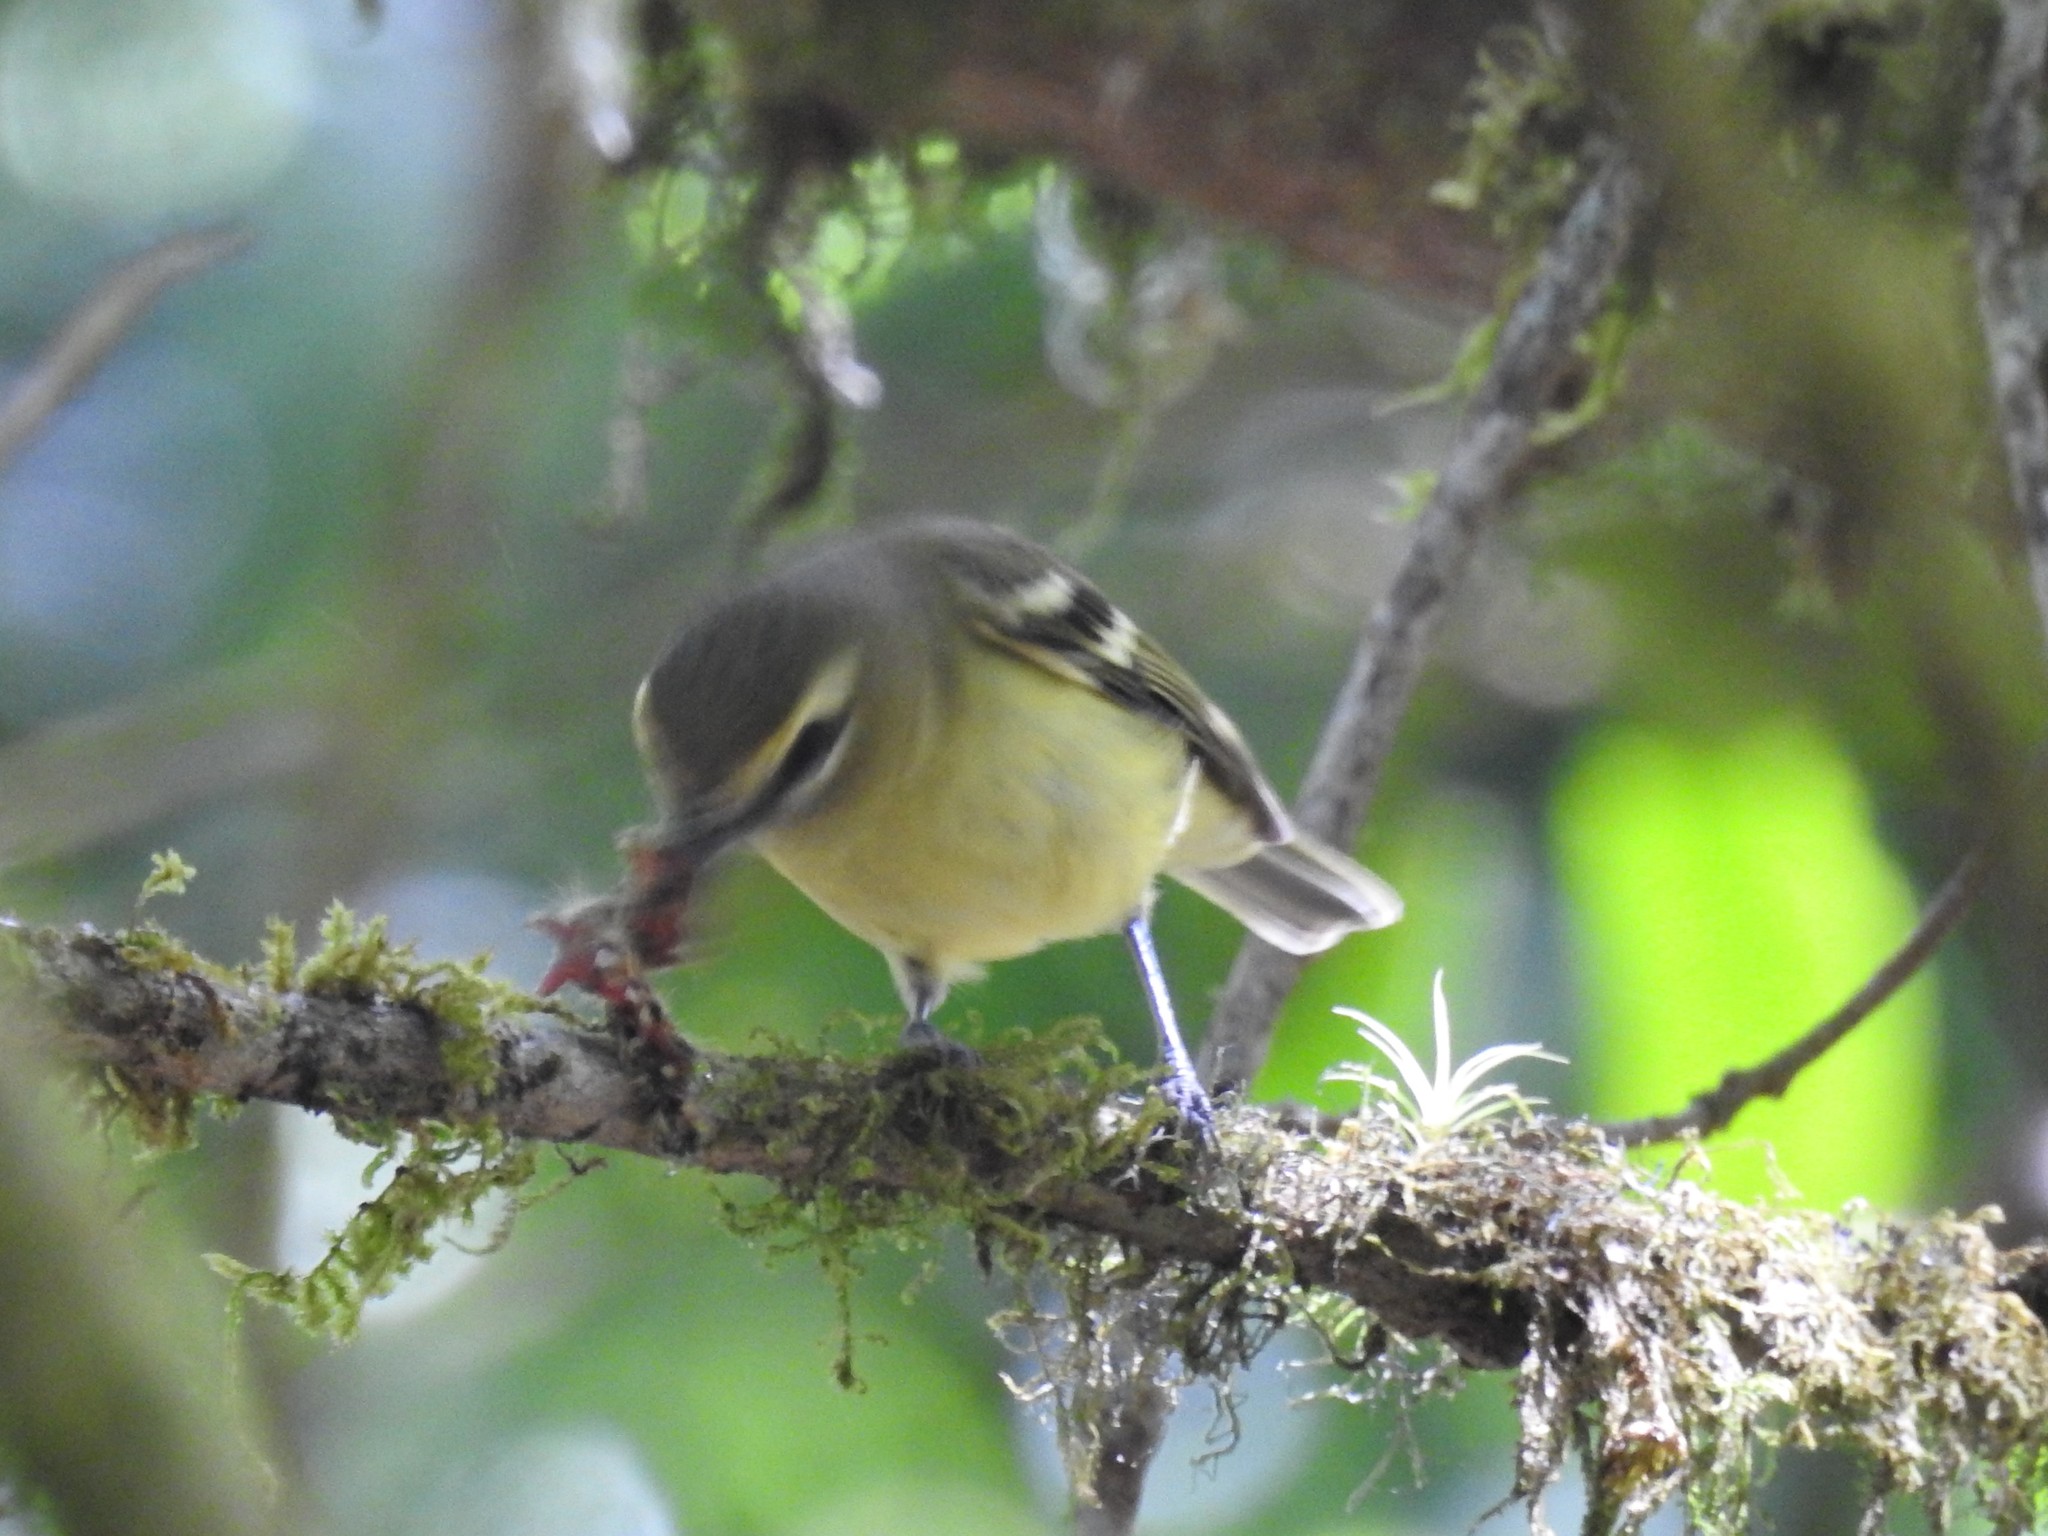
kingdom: Animalia
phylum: Chordata
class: Aves
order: Passeriformes
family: Vireonidae
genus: Vireo
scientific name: Vireo carmioli
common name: Yellow-winged vireo
